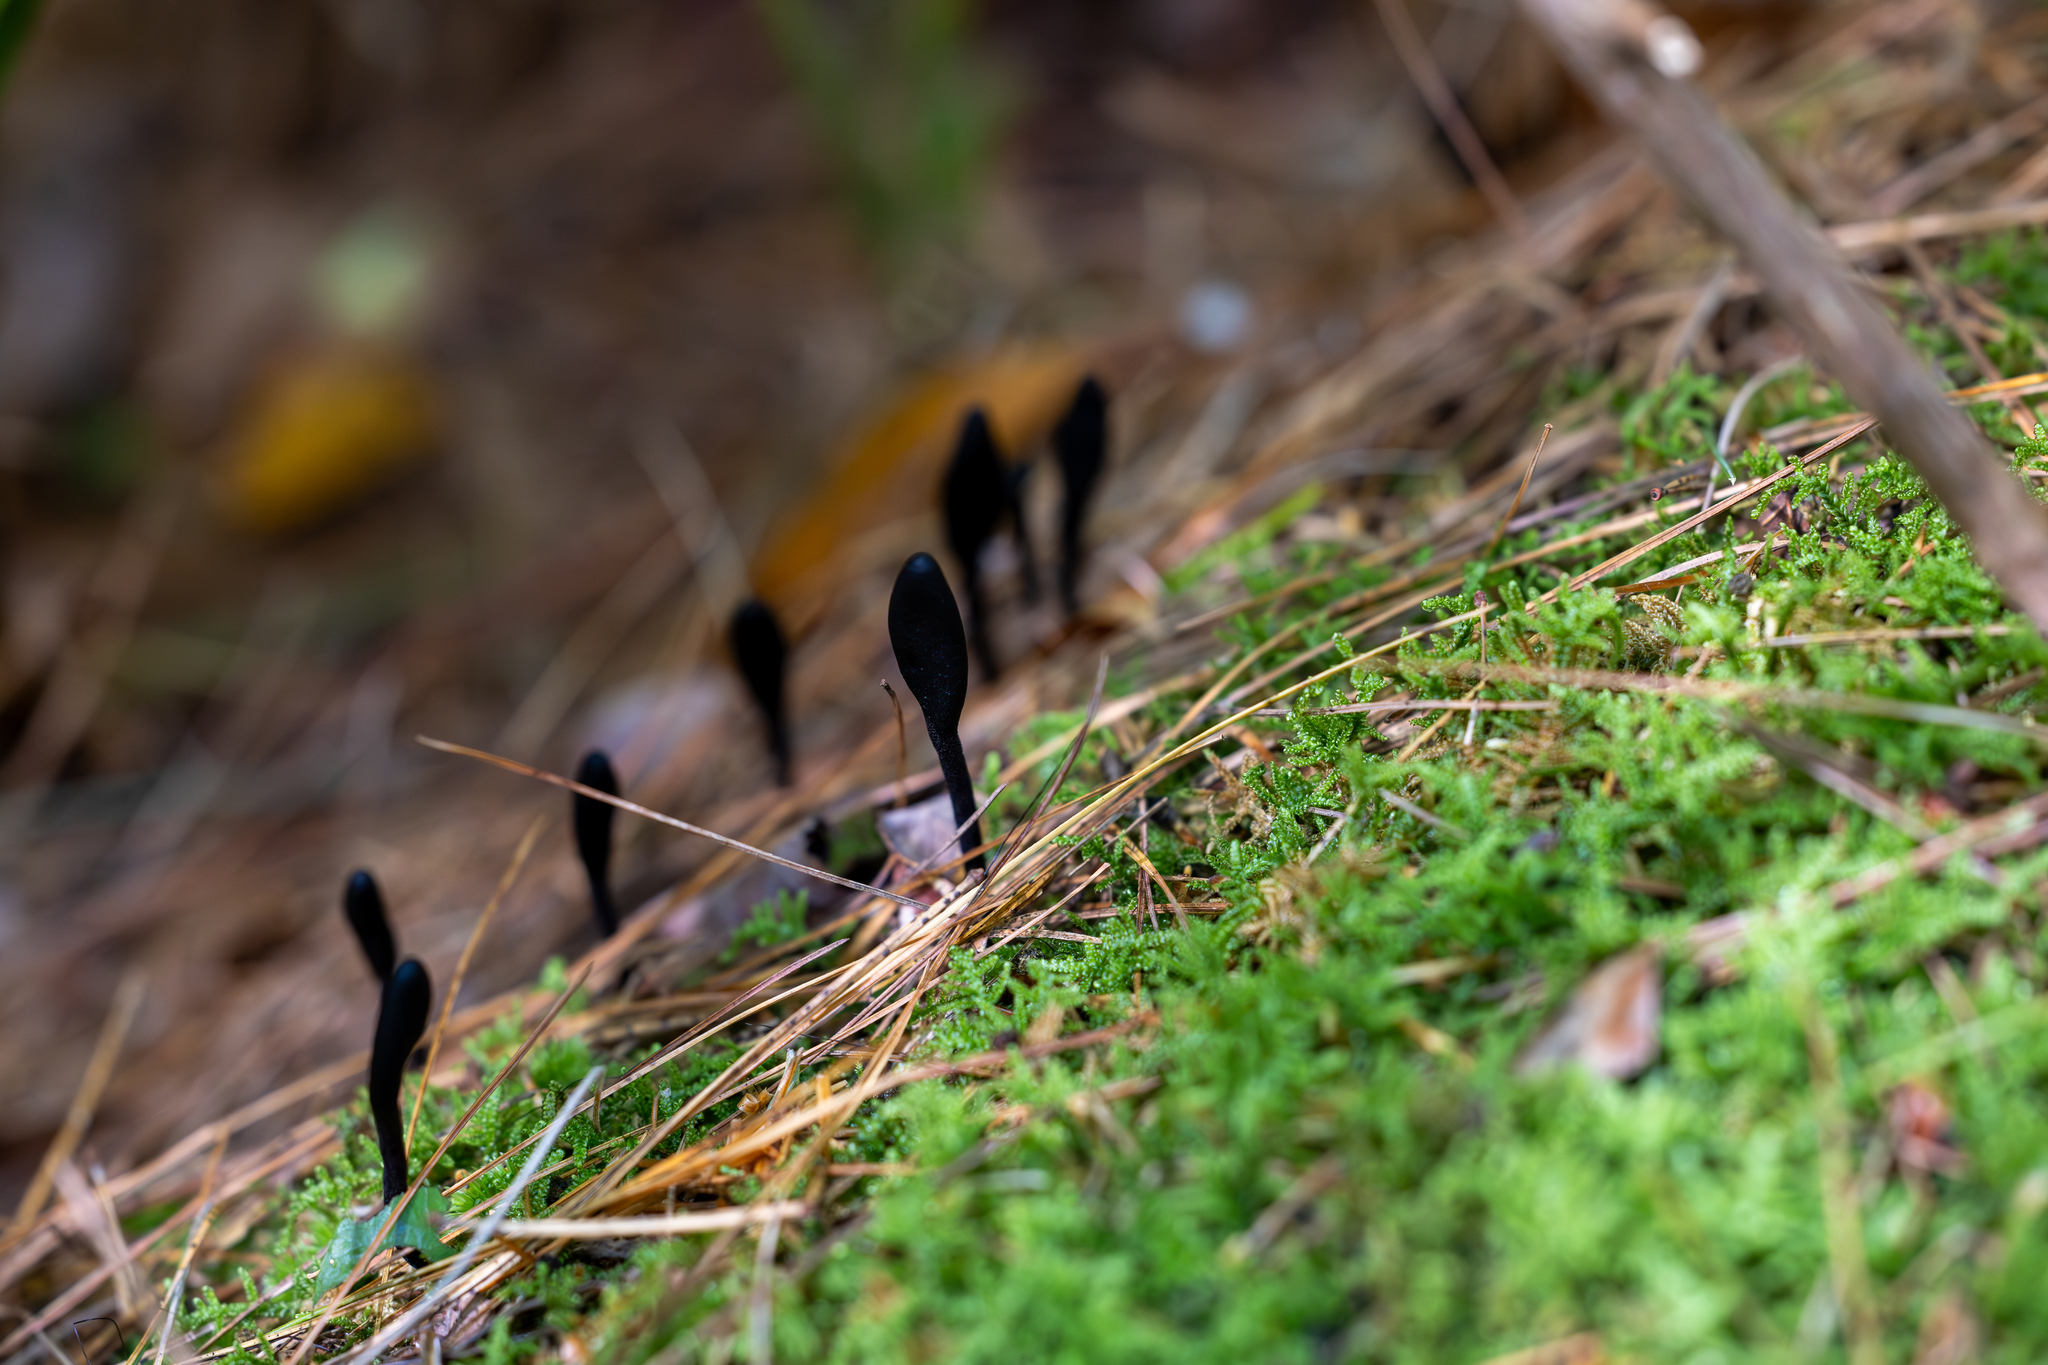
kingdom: Fungi
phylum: Ascomycota
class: Geoglossomycetes
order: Geoglossales
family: Geoglossaceae
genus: Trichoglossum
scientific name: Trichoglossum farlowii
